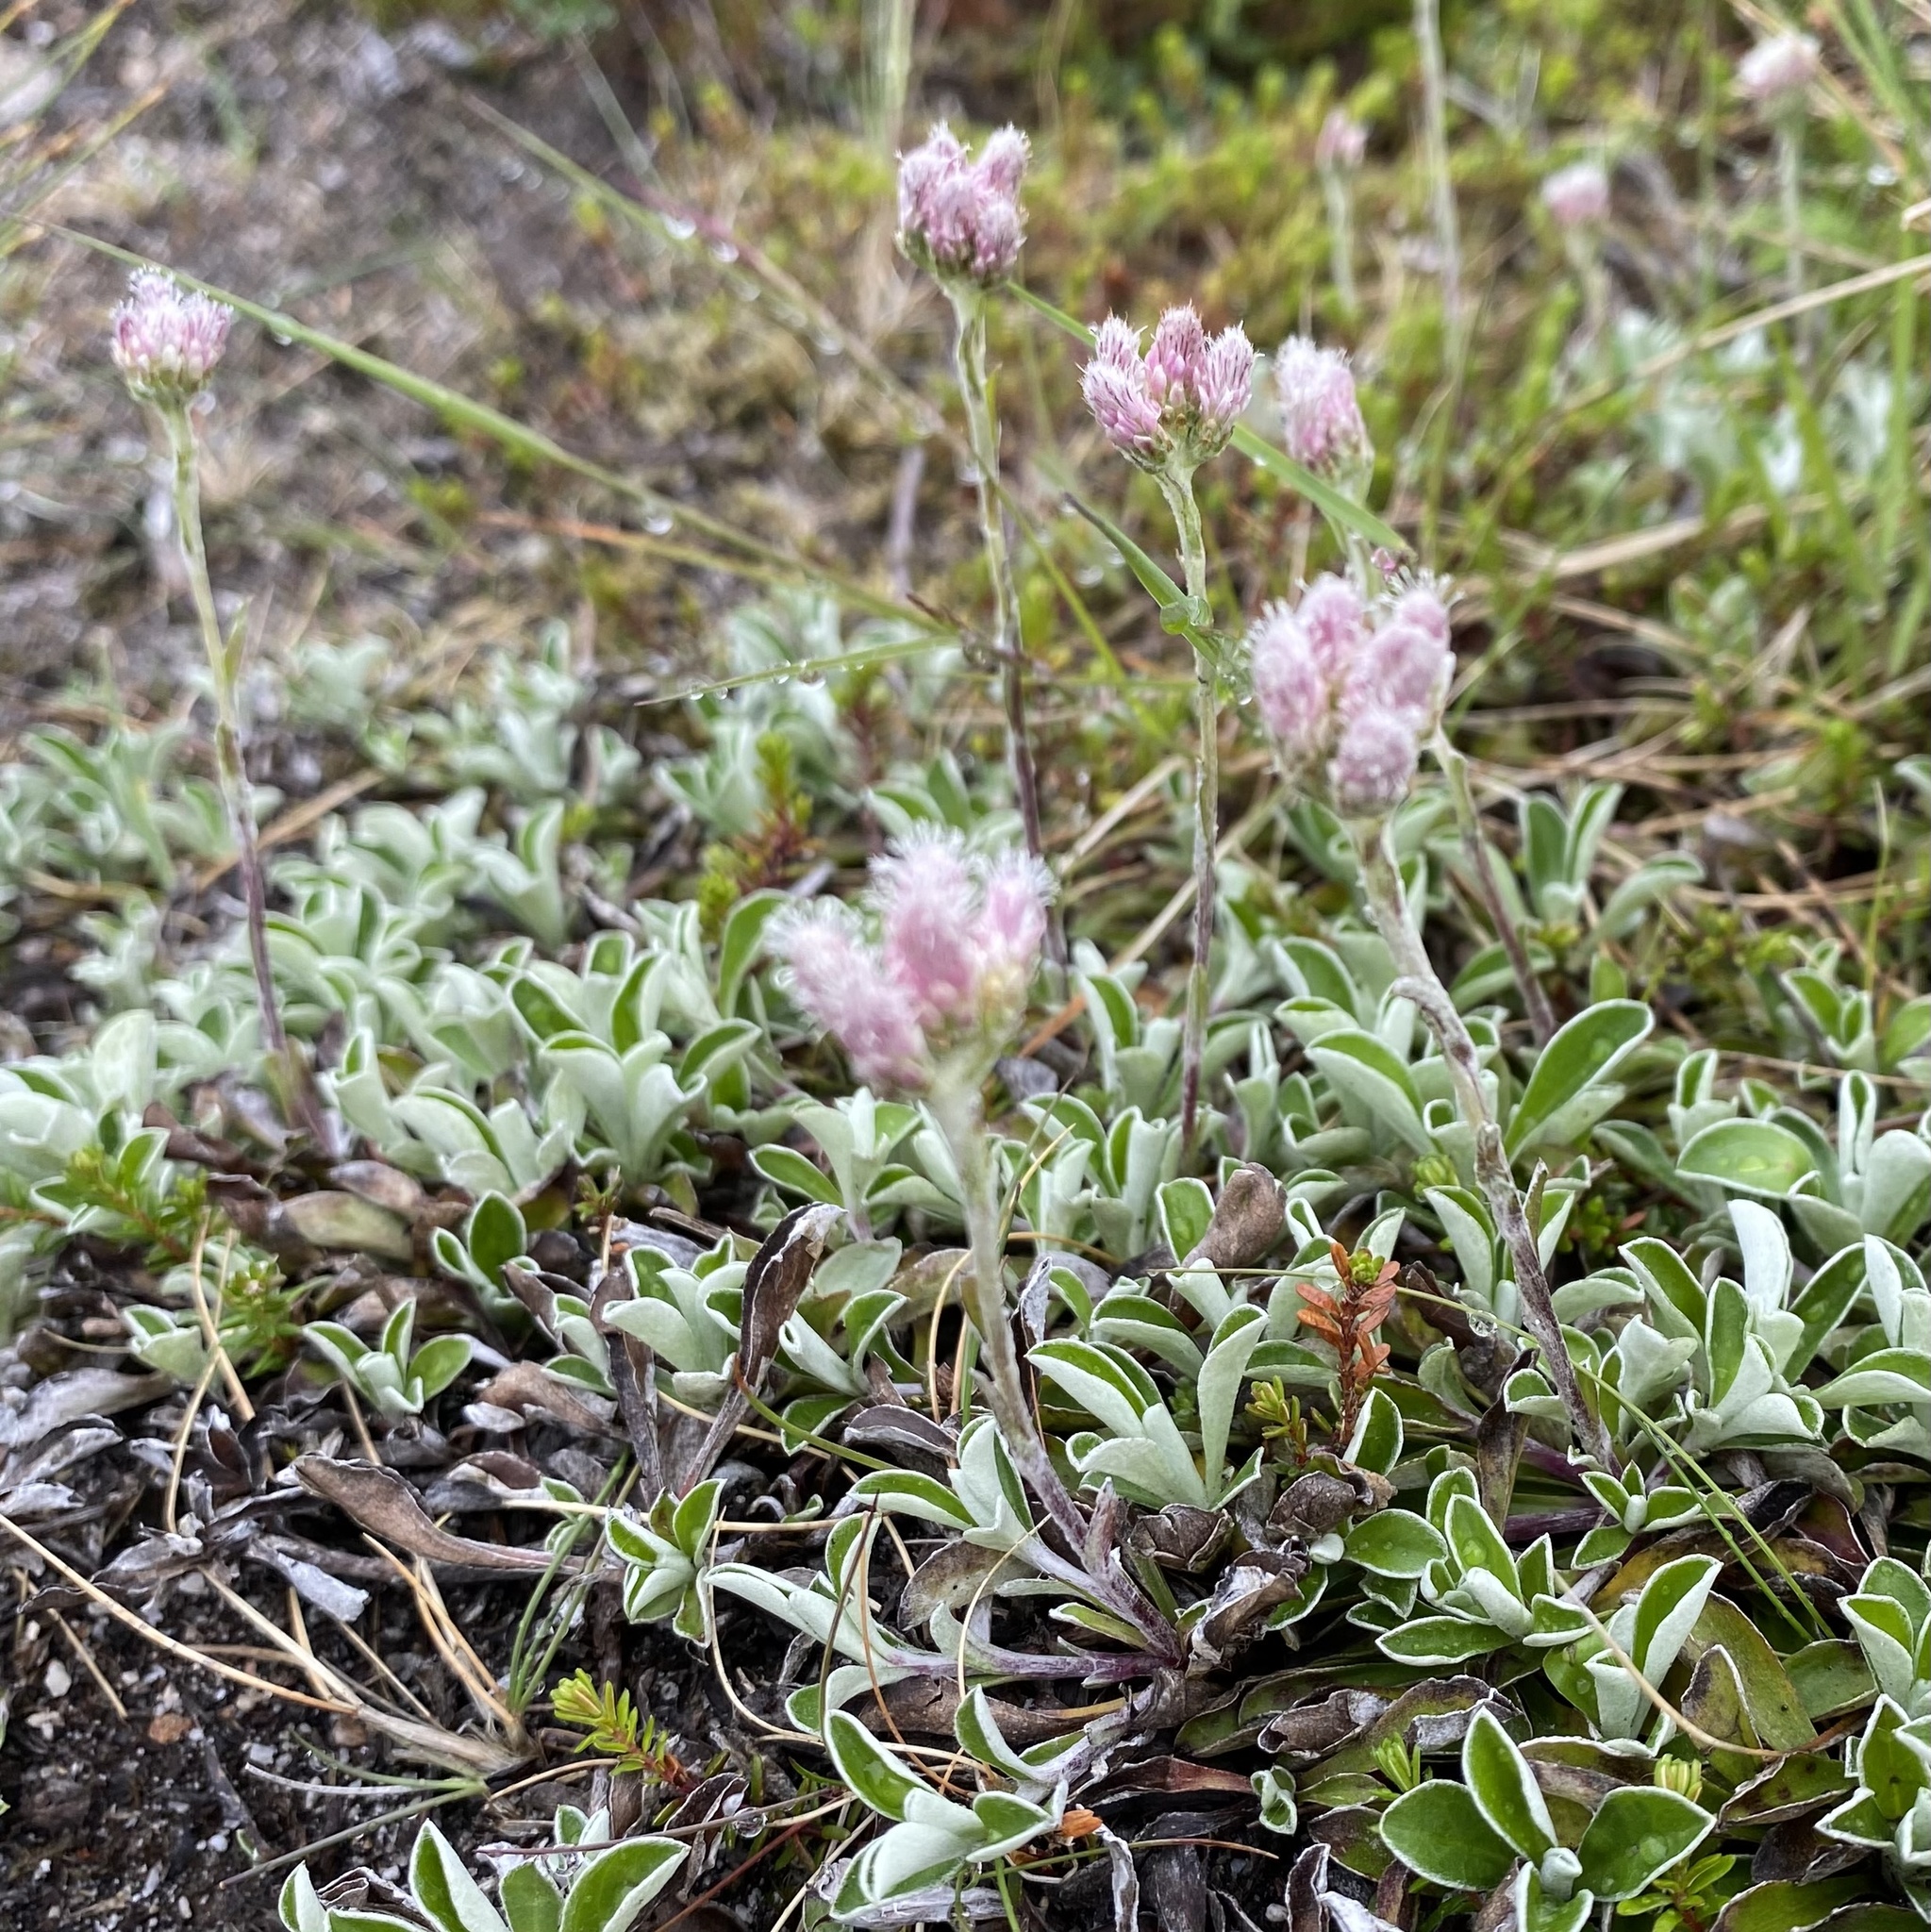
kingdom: Plantae
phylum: Tracheophyta
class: Magnoliopsida
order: Asterales
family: Asteraceae
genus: Antennaria
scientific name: Antennaria dioica
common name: Mountain everlasting
